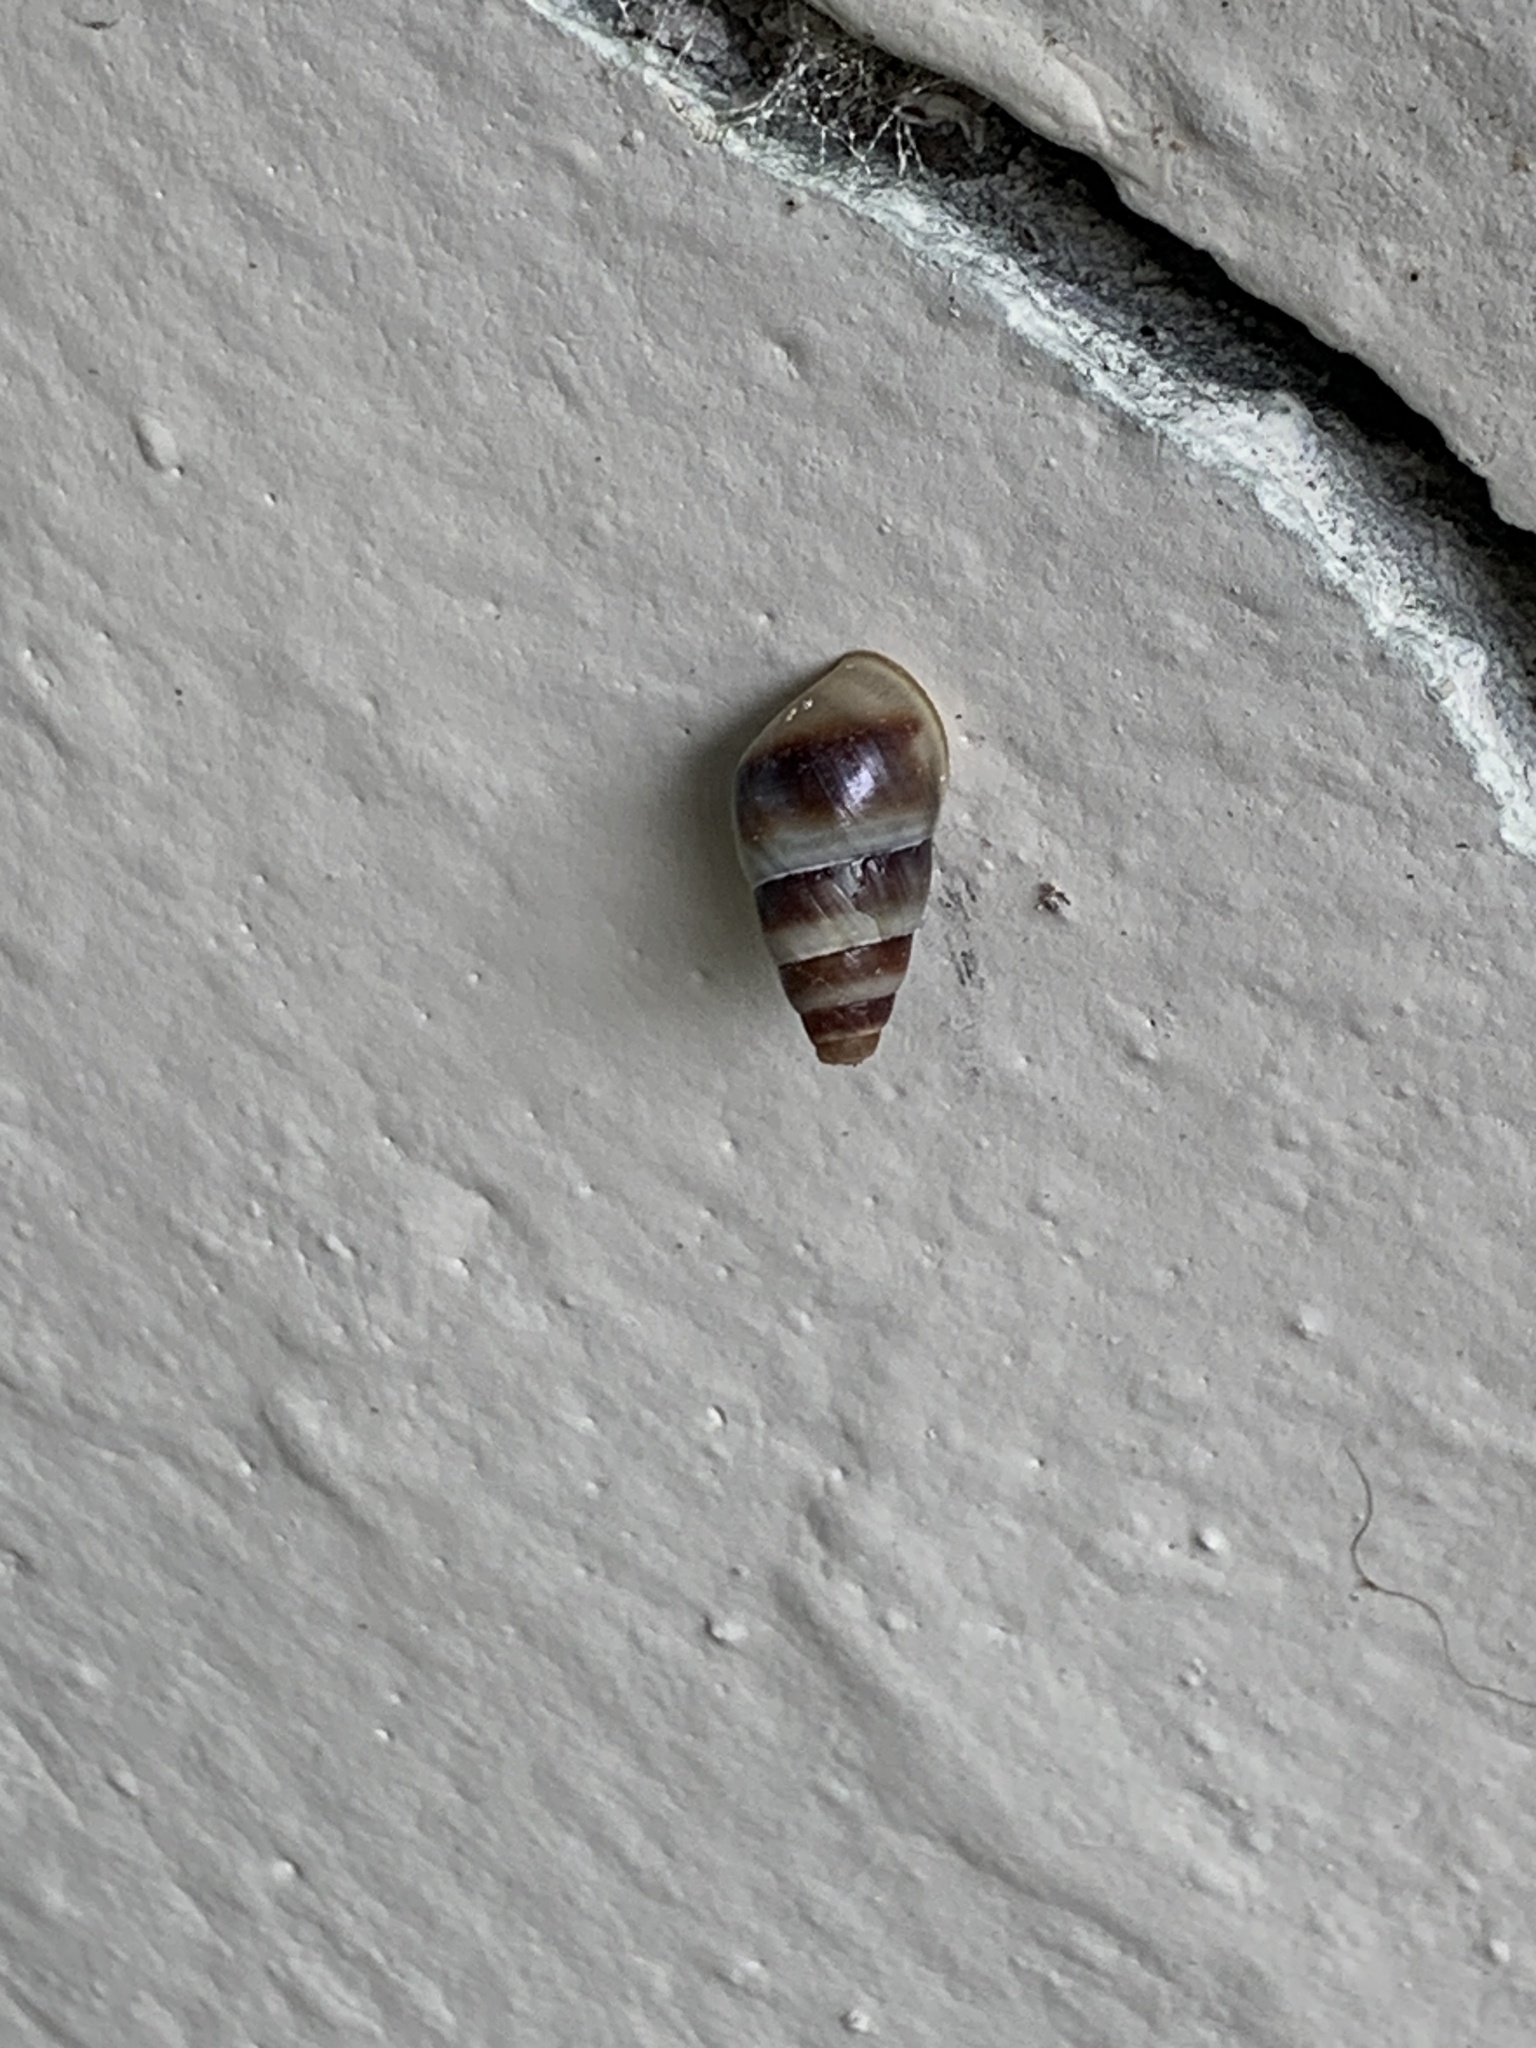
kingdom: Animalia
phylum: Mollusca
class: Gastropoda
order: Stylommatophora
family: Enidae
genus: Caucasicola
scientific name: Caucasicola raddei
